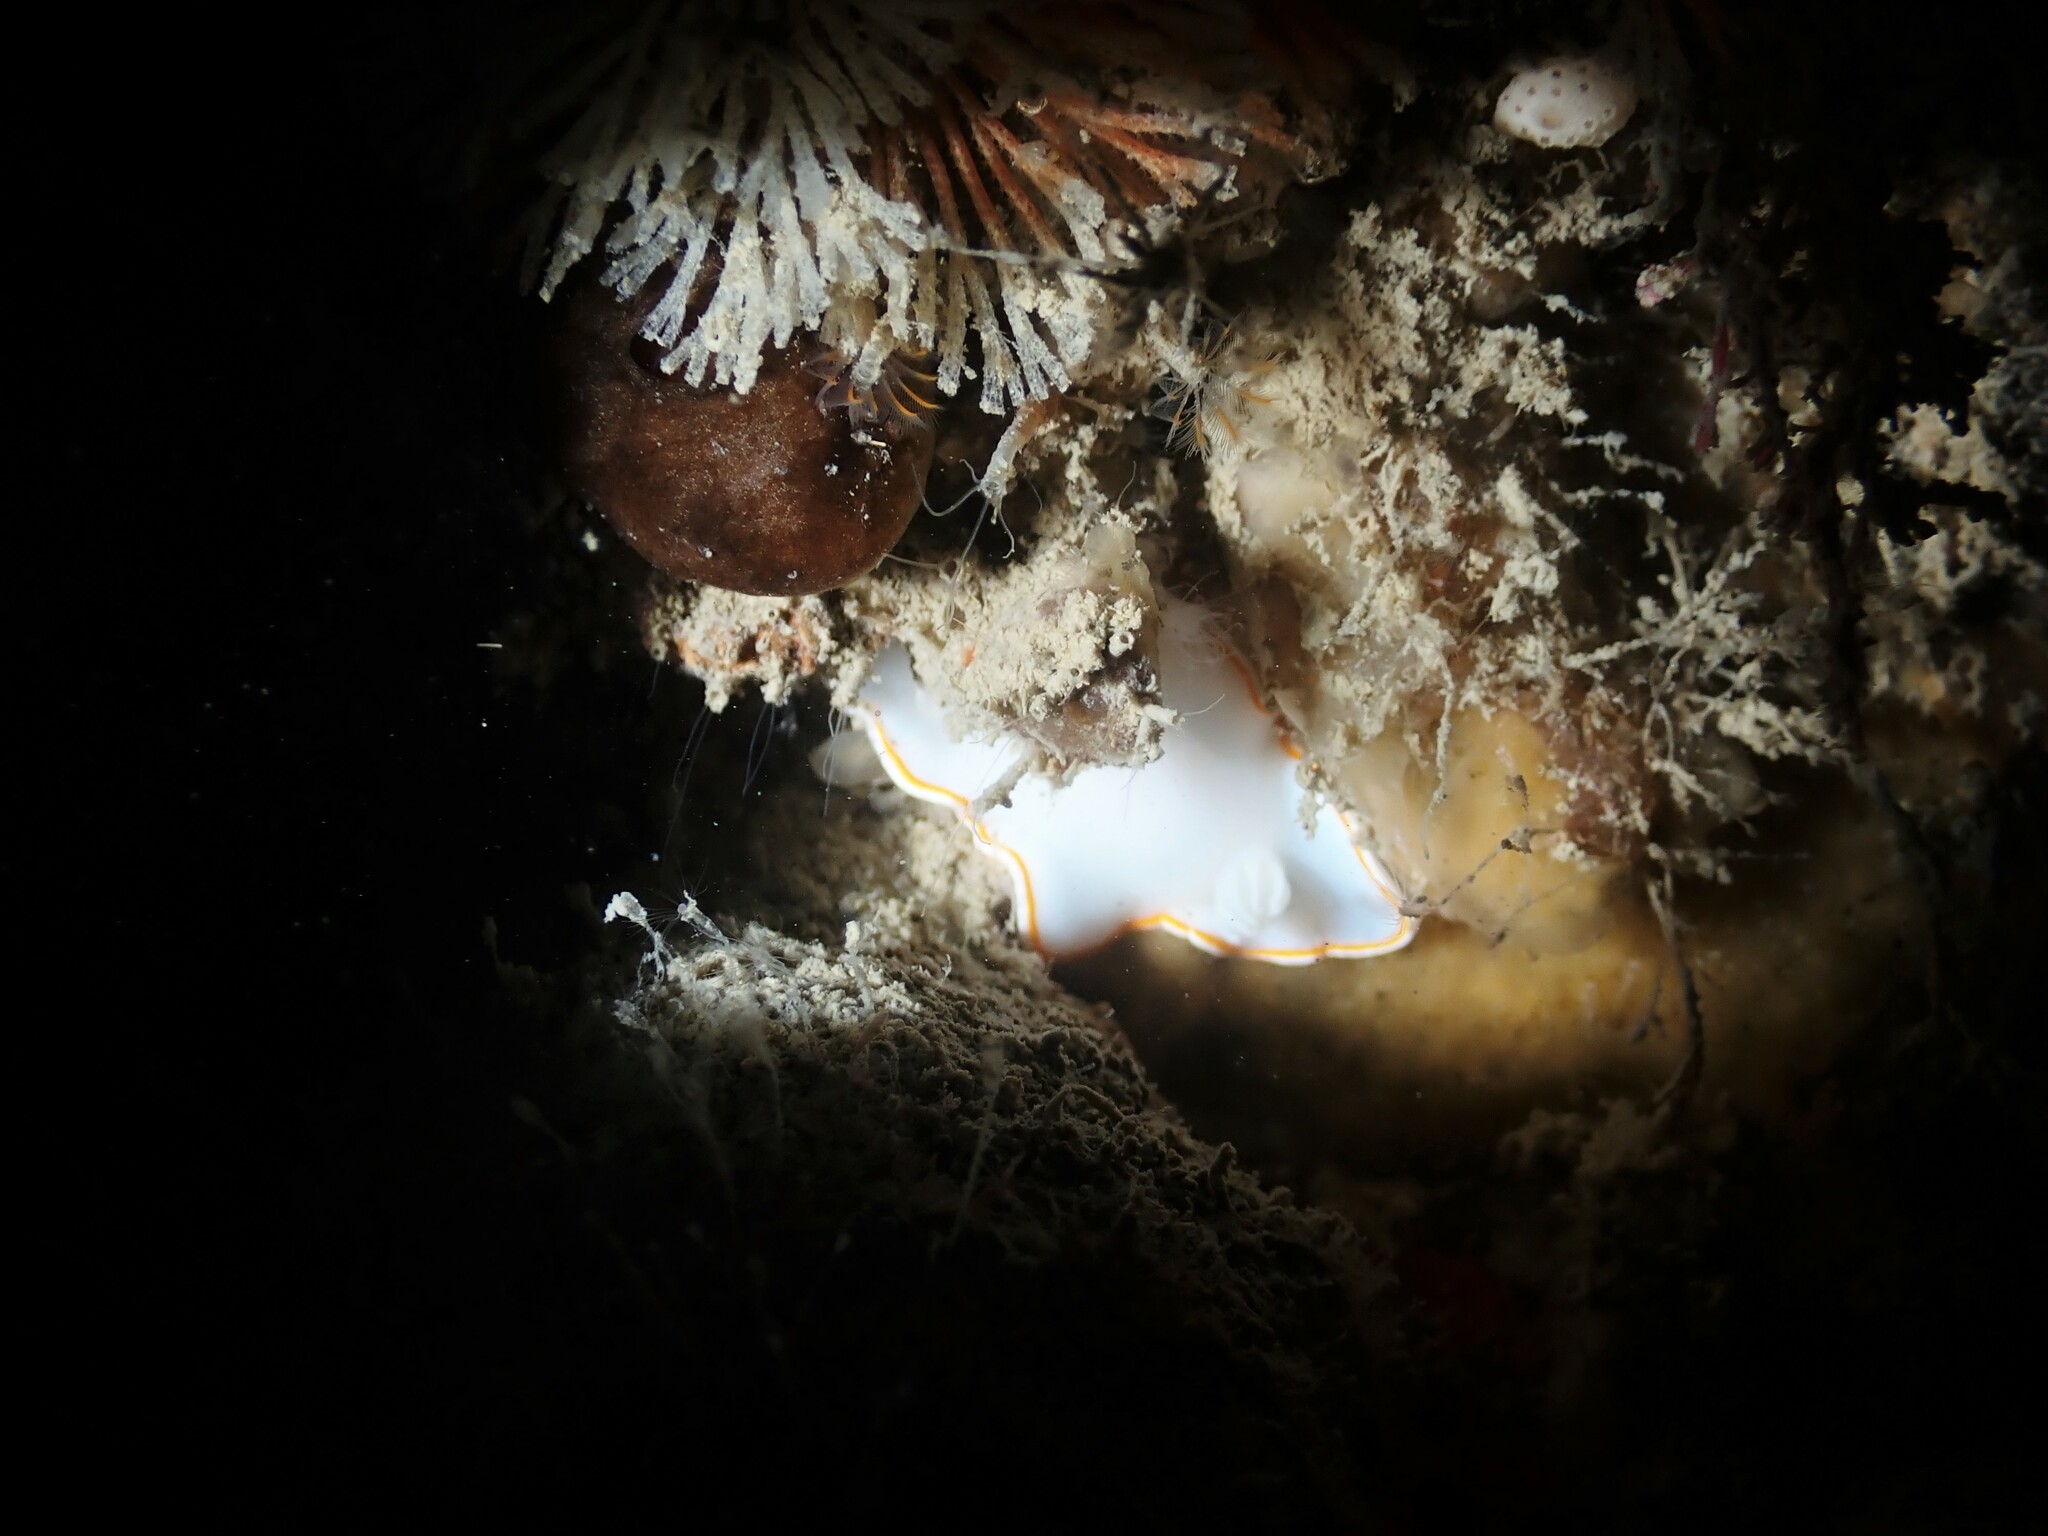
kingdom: Animalia
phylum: Mollusca
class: Gastropoda
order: Nudibranchia
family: Chromodorididae
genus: Goniobranchus
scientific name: Goniobranchus aureomarginatus
